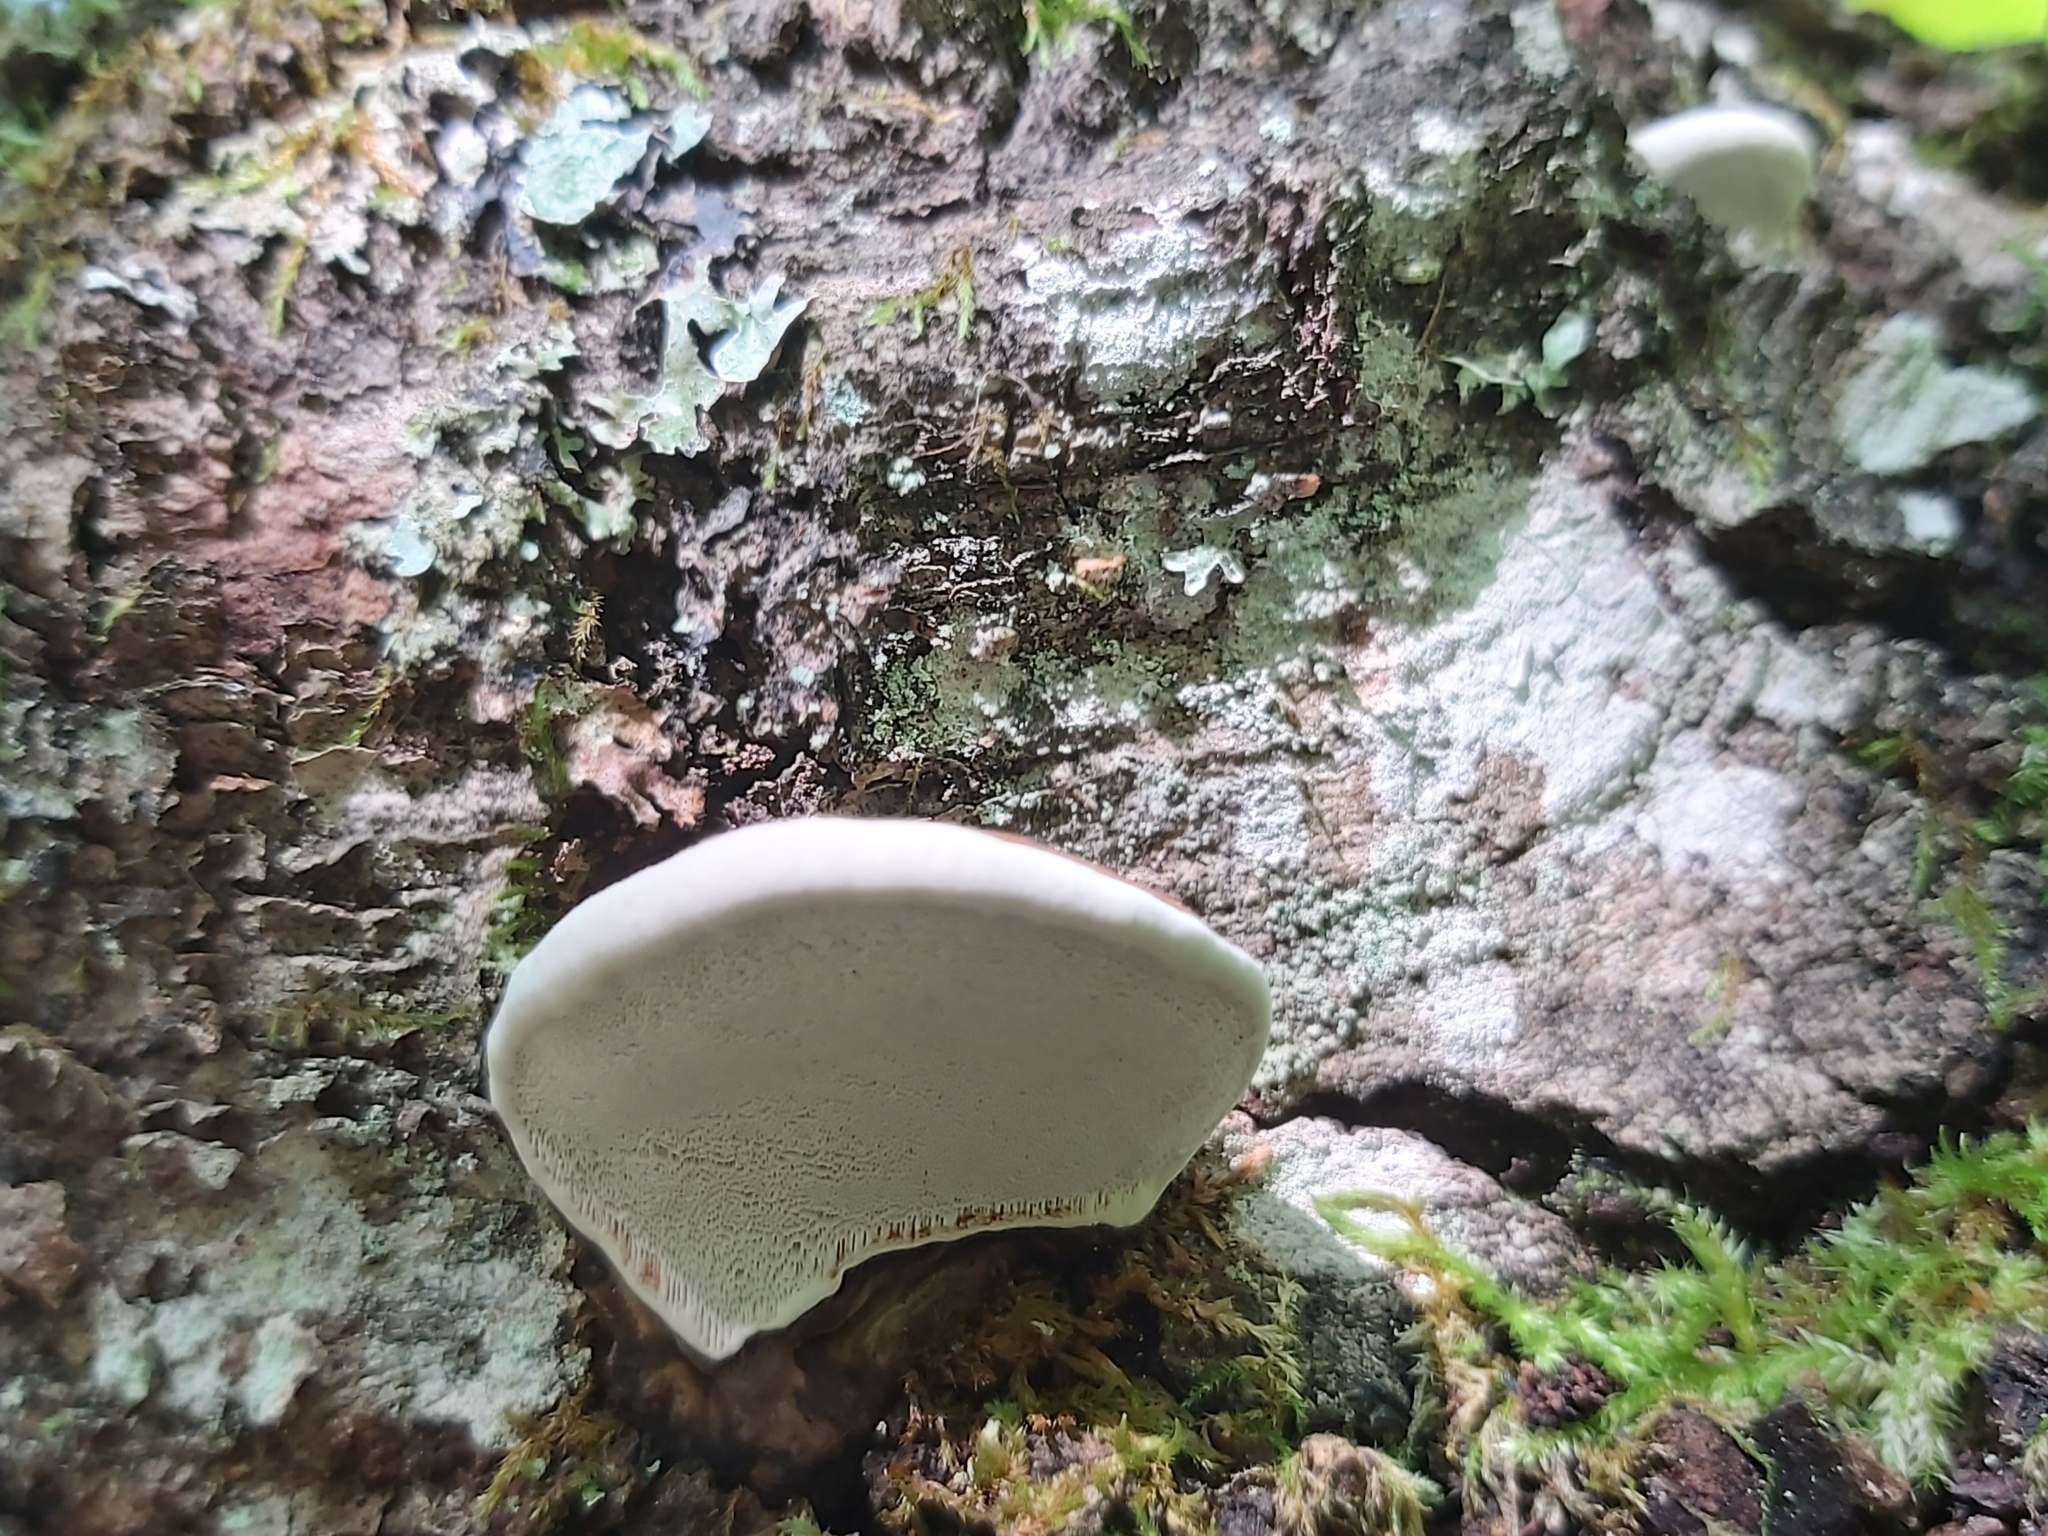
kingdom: Fungi
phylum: Basidiomycota
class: Agaricomycetes
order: Polyporales
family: Polyporaceae
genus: Ganoderma
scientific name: Ganoderma applanatum
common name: Artist's bracket
